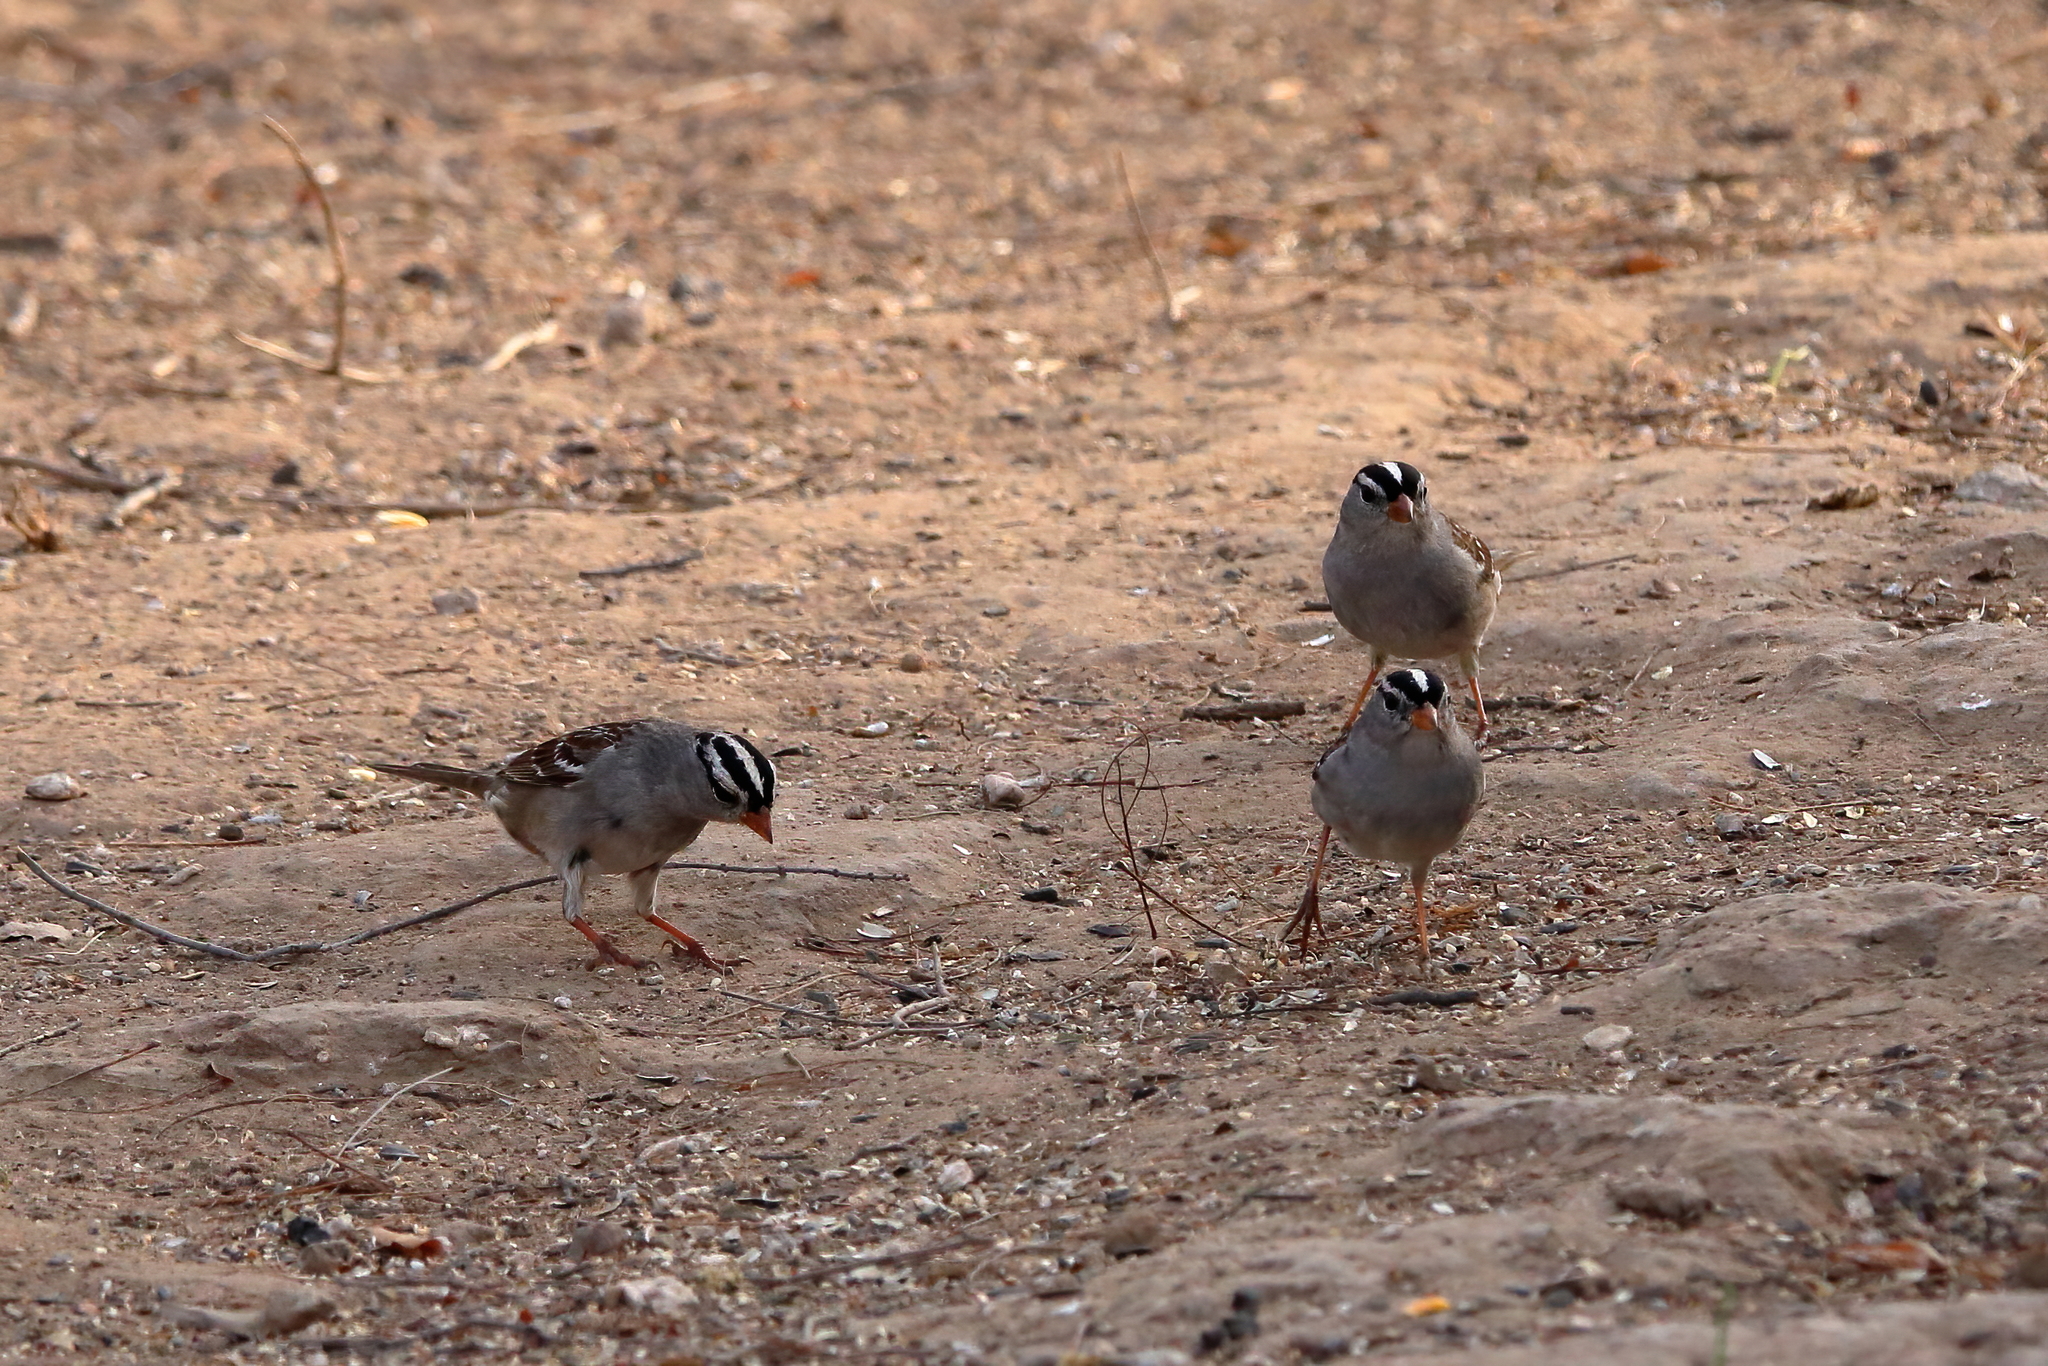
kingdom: Animalia
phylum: Chordata
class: Aves
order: Passeriformes
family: Passerellidae
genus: Zonotrichia
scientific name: Zonotrichia leucophrys
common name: White-crowned sparrow
